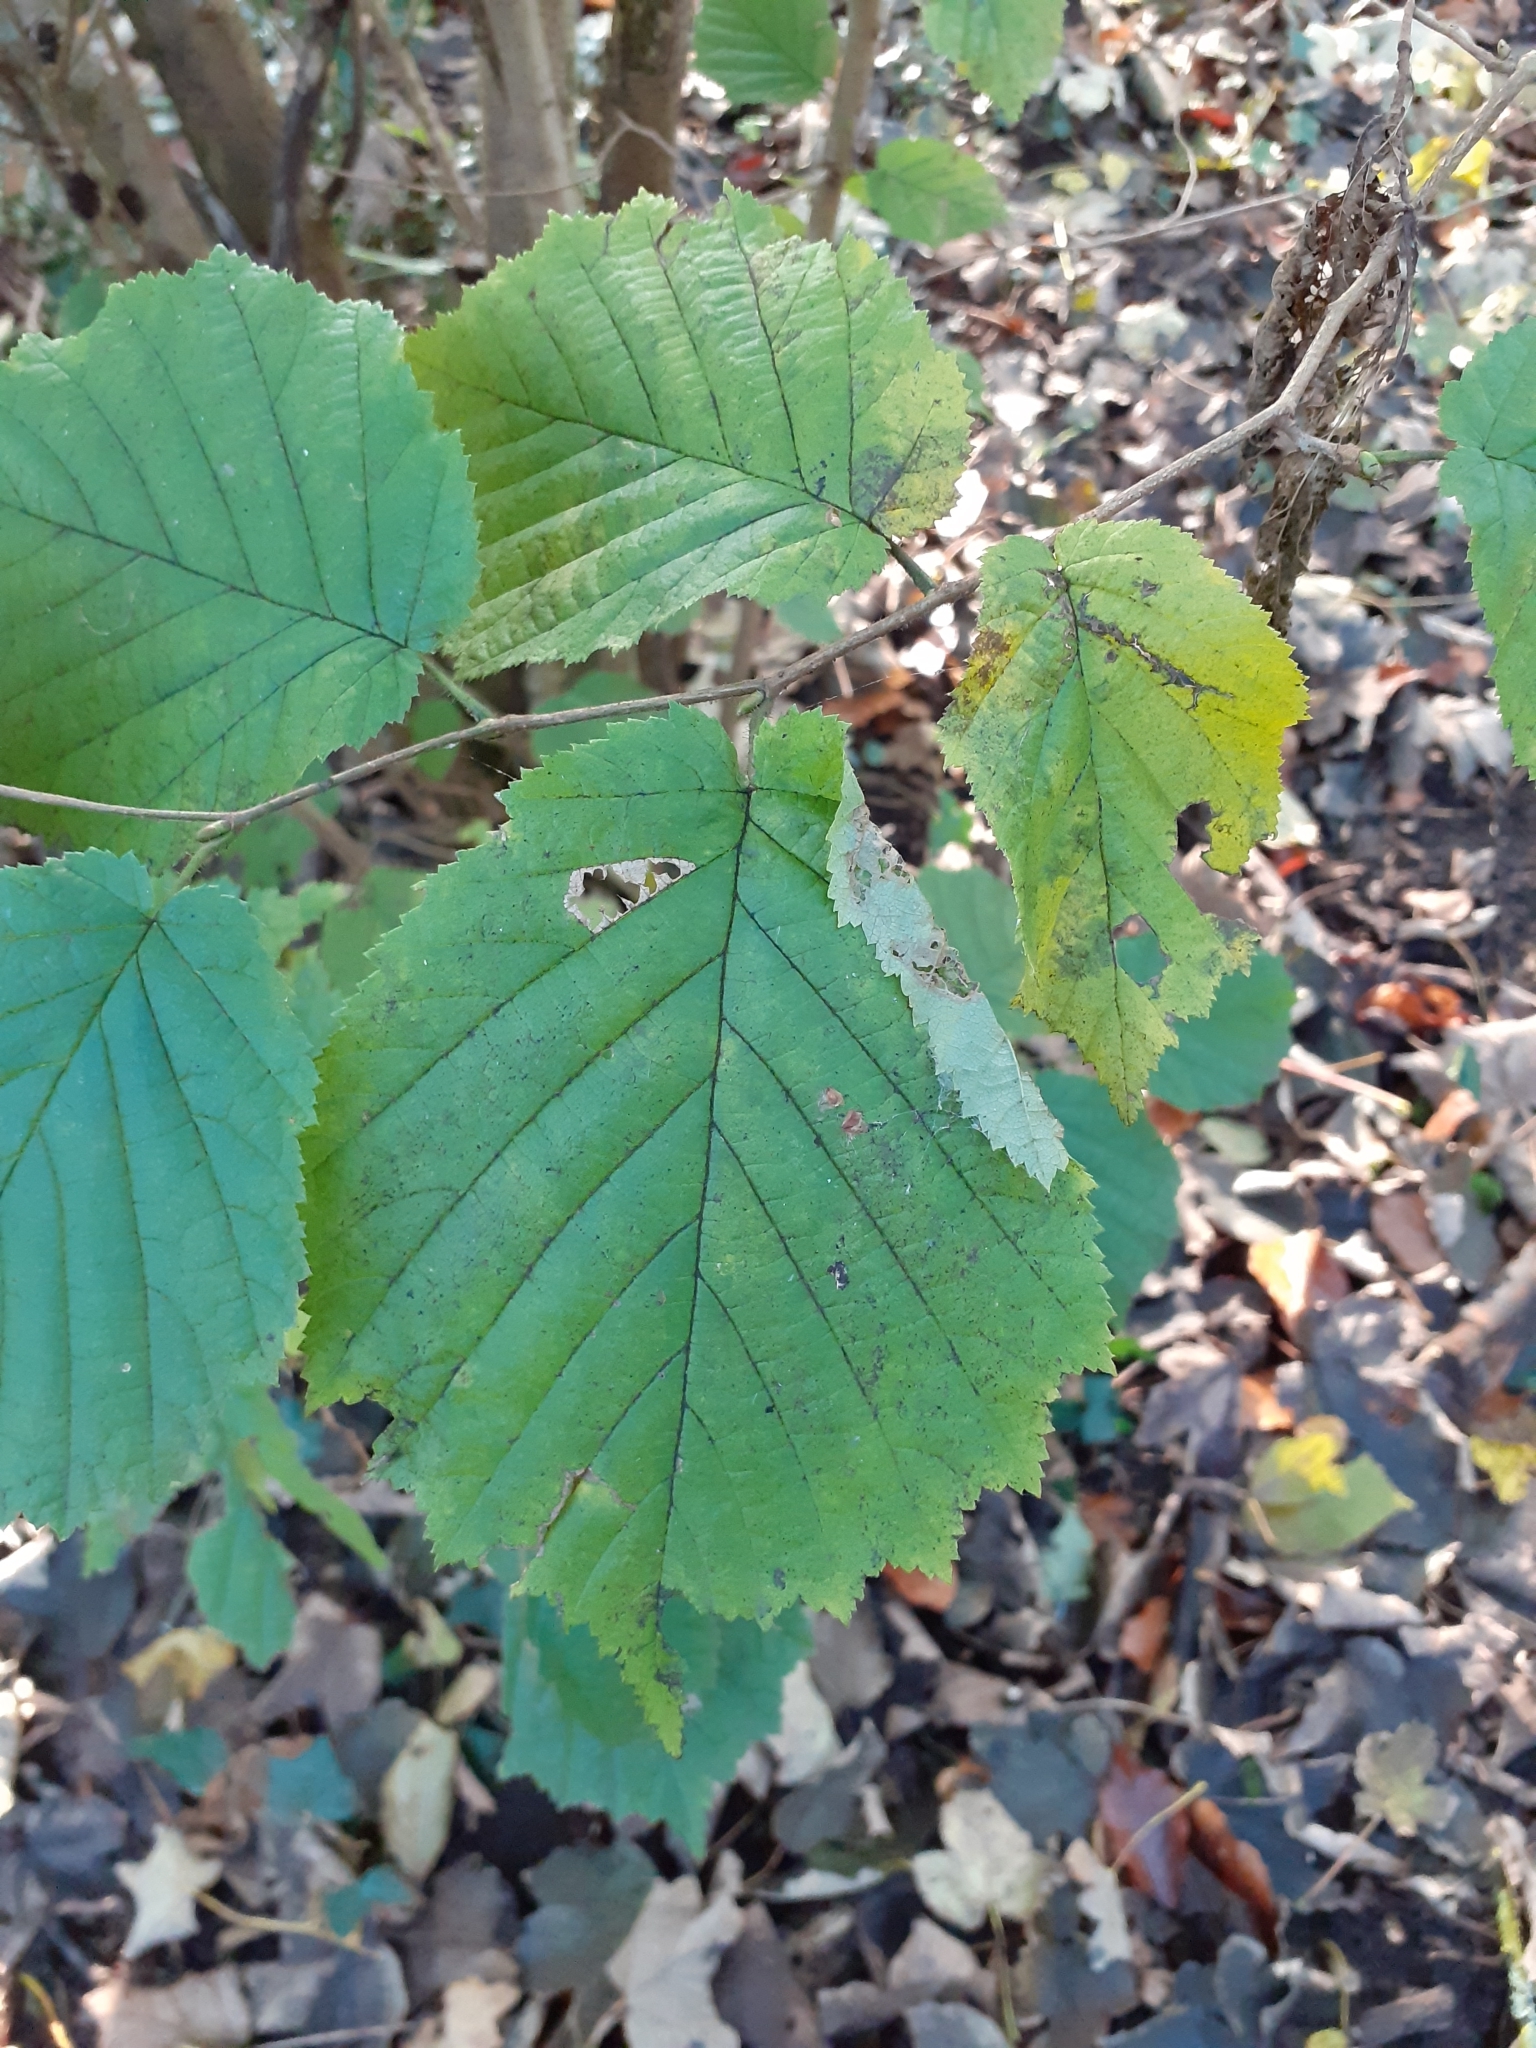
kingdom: Animalia
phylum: Arthropoda
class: Insecta
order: Lepidoptera
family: Gracillariidae
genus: Parornix
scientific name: Parornix devoniella
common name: Hazel slender
